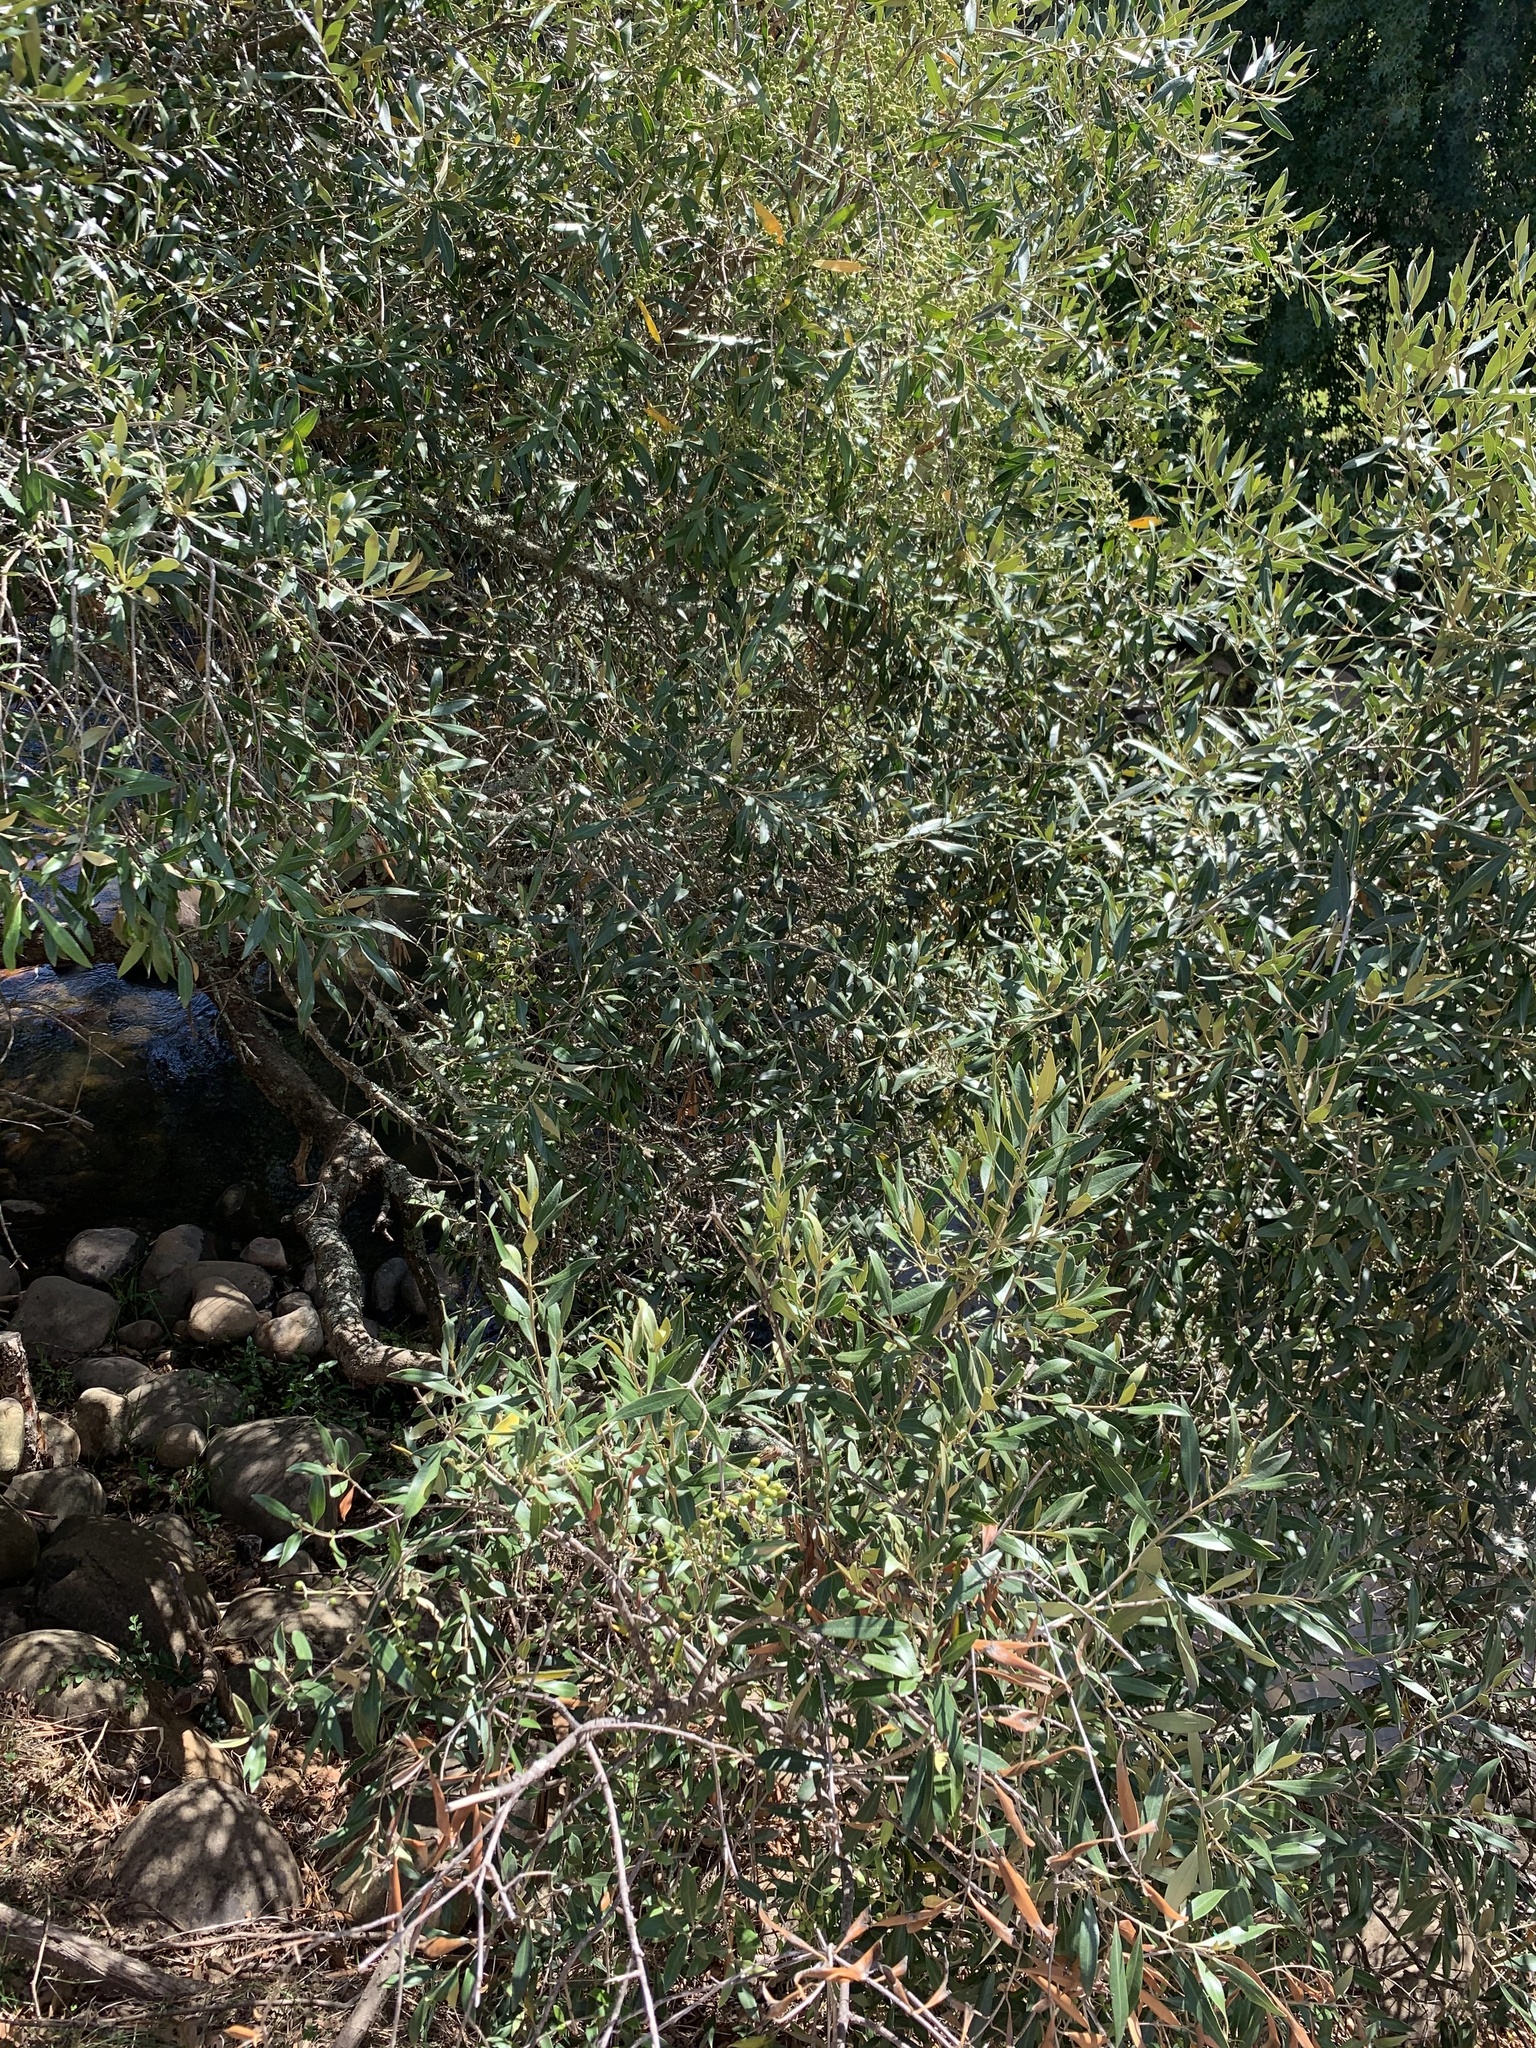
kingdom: Plantae
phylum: Tracheophyta
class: Magnoliopsida
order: Lamiales
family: Oleaceae
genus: Olea
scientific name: Olea europaea
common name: Olive
